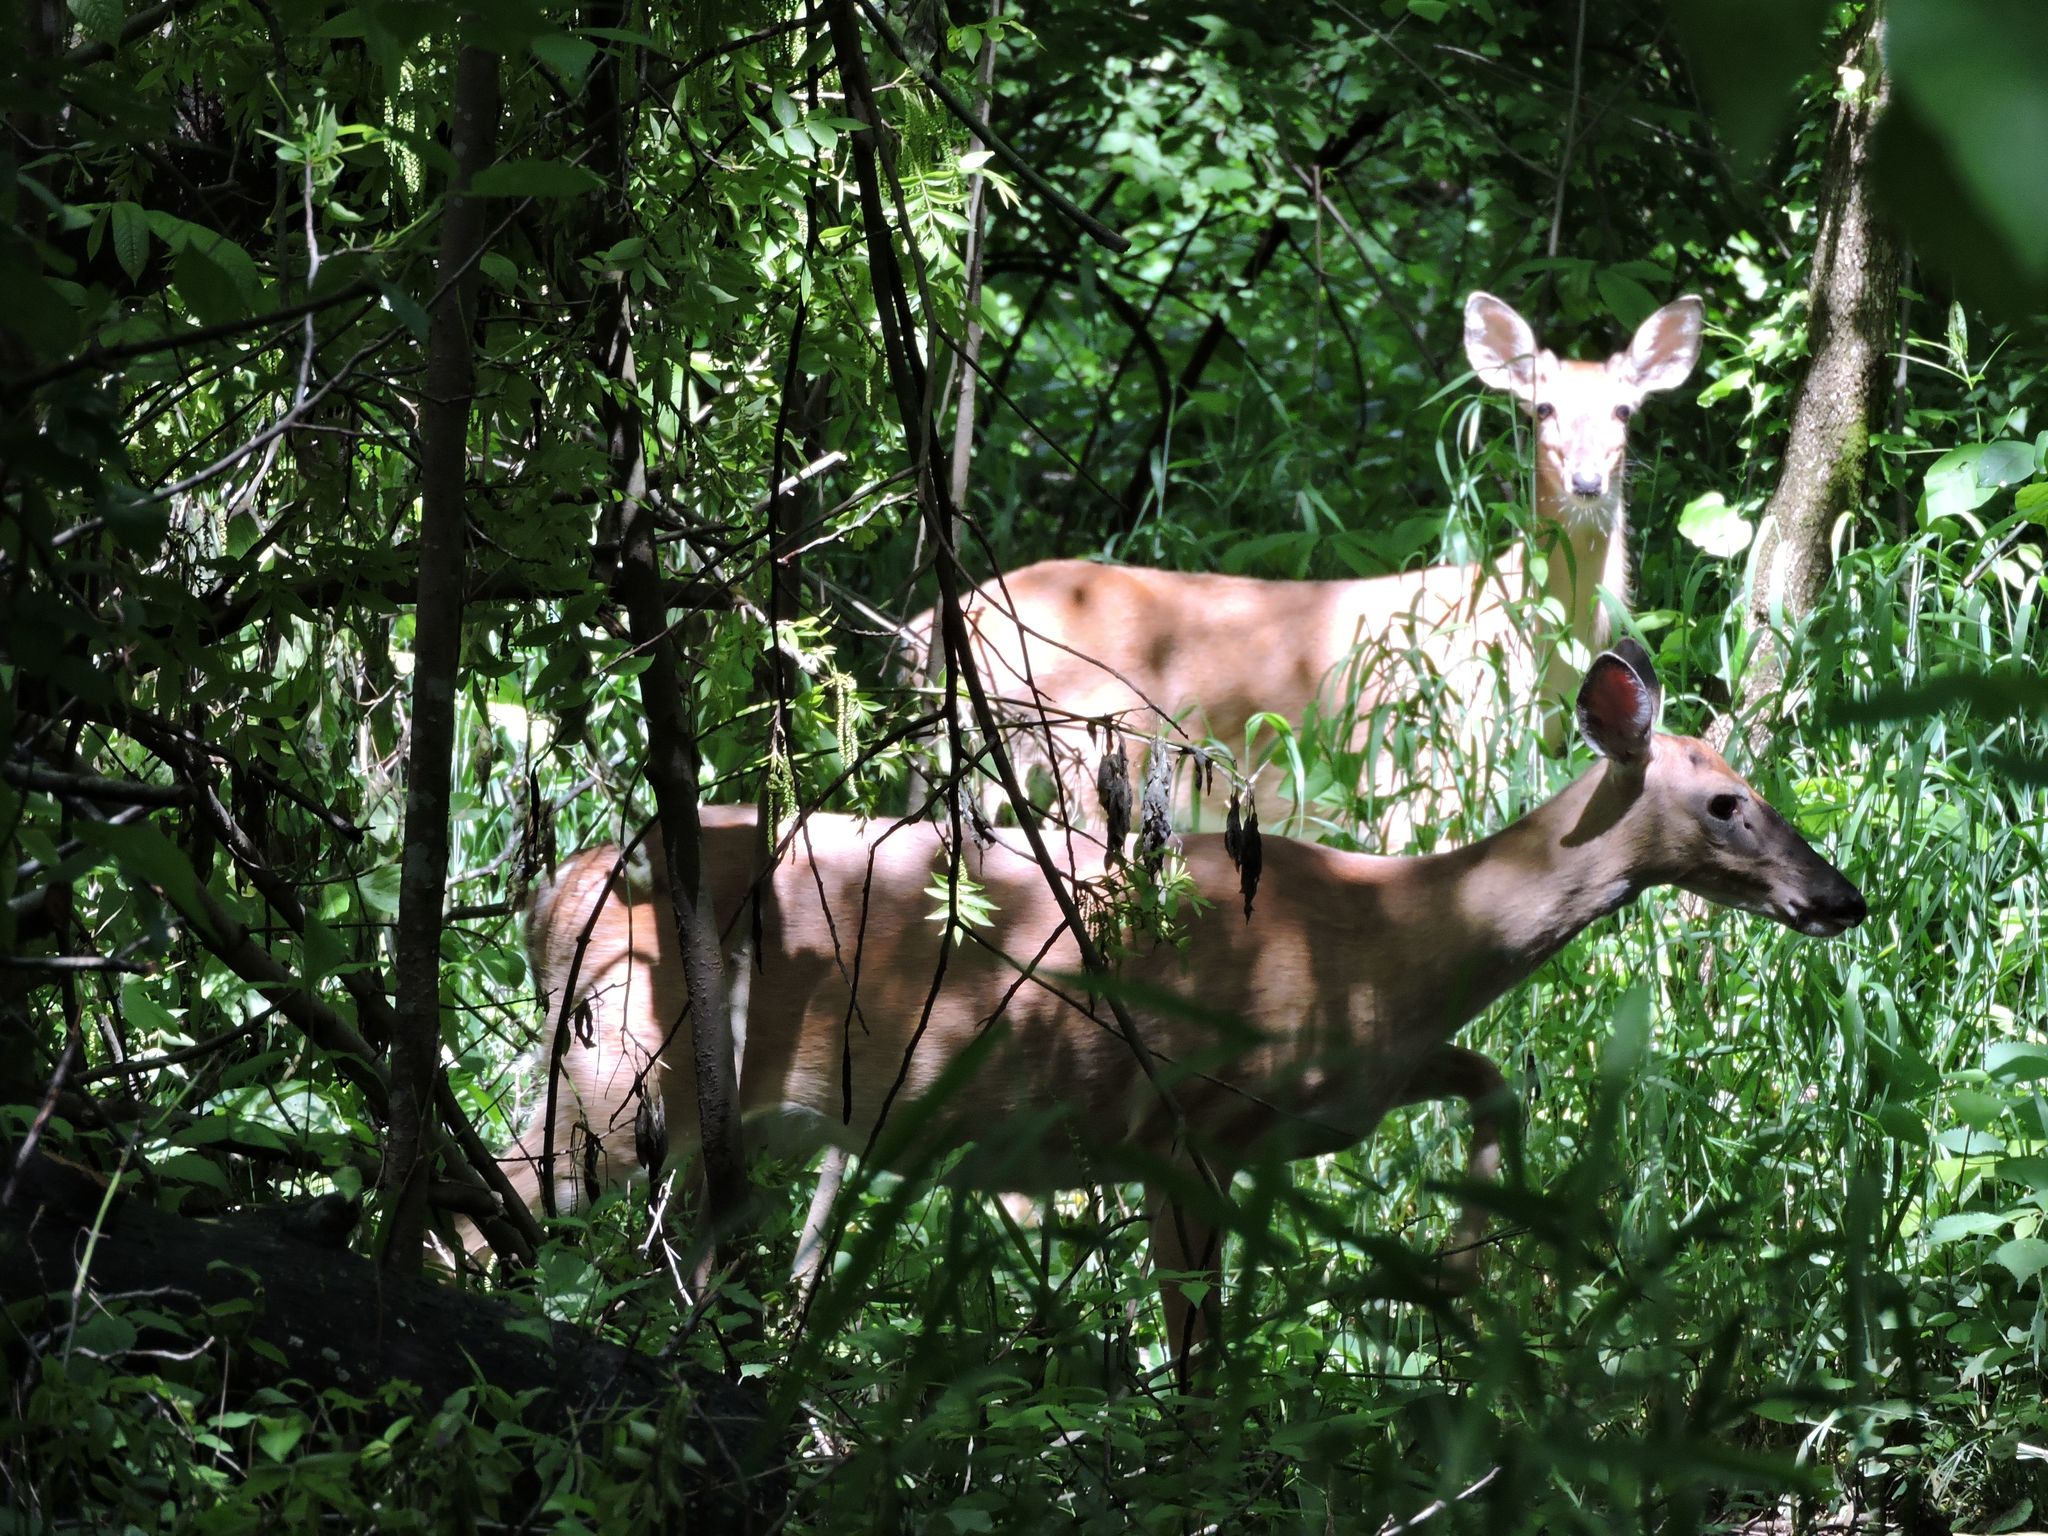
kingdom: Animalia
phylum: Chordata
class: Mammalia
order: Artiodactyla
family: Cervidae
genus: Odocoileus
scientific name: Odocoileus virginianus
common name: White-tailed deer
